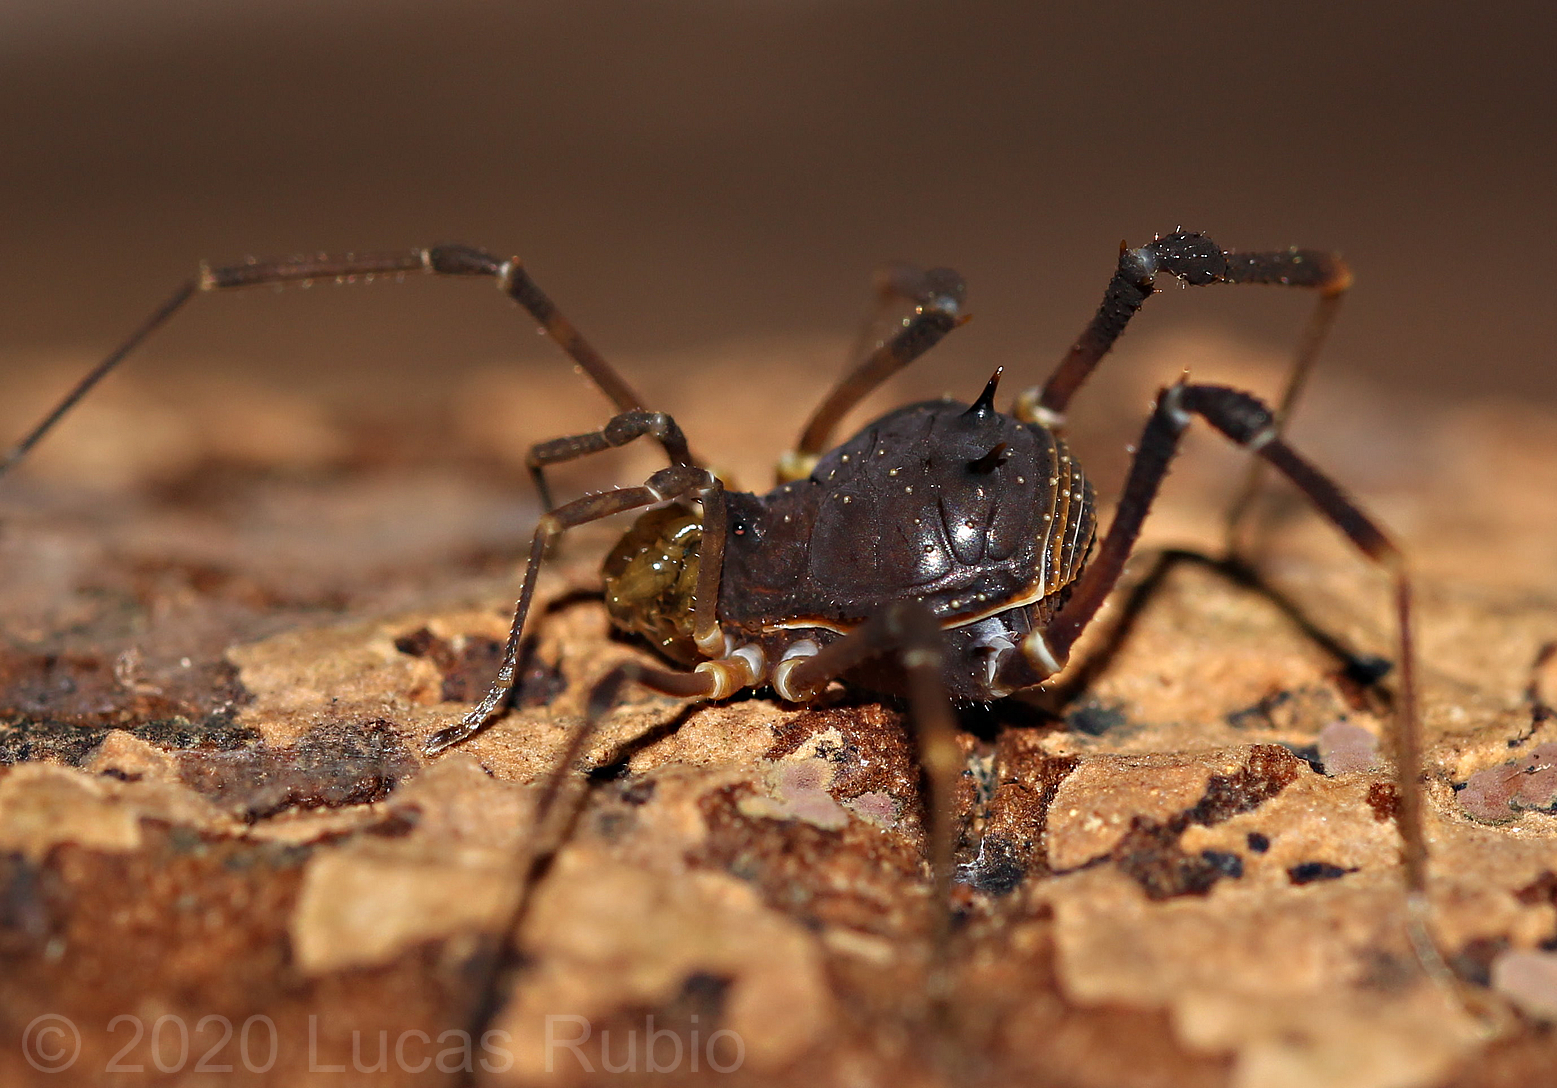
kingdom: Animalia
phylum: Arthropoda
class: Arachnida
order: Opiliones
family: Gonyleptidae
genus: Discocyrtus
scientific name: Discocyrtus testudineus
